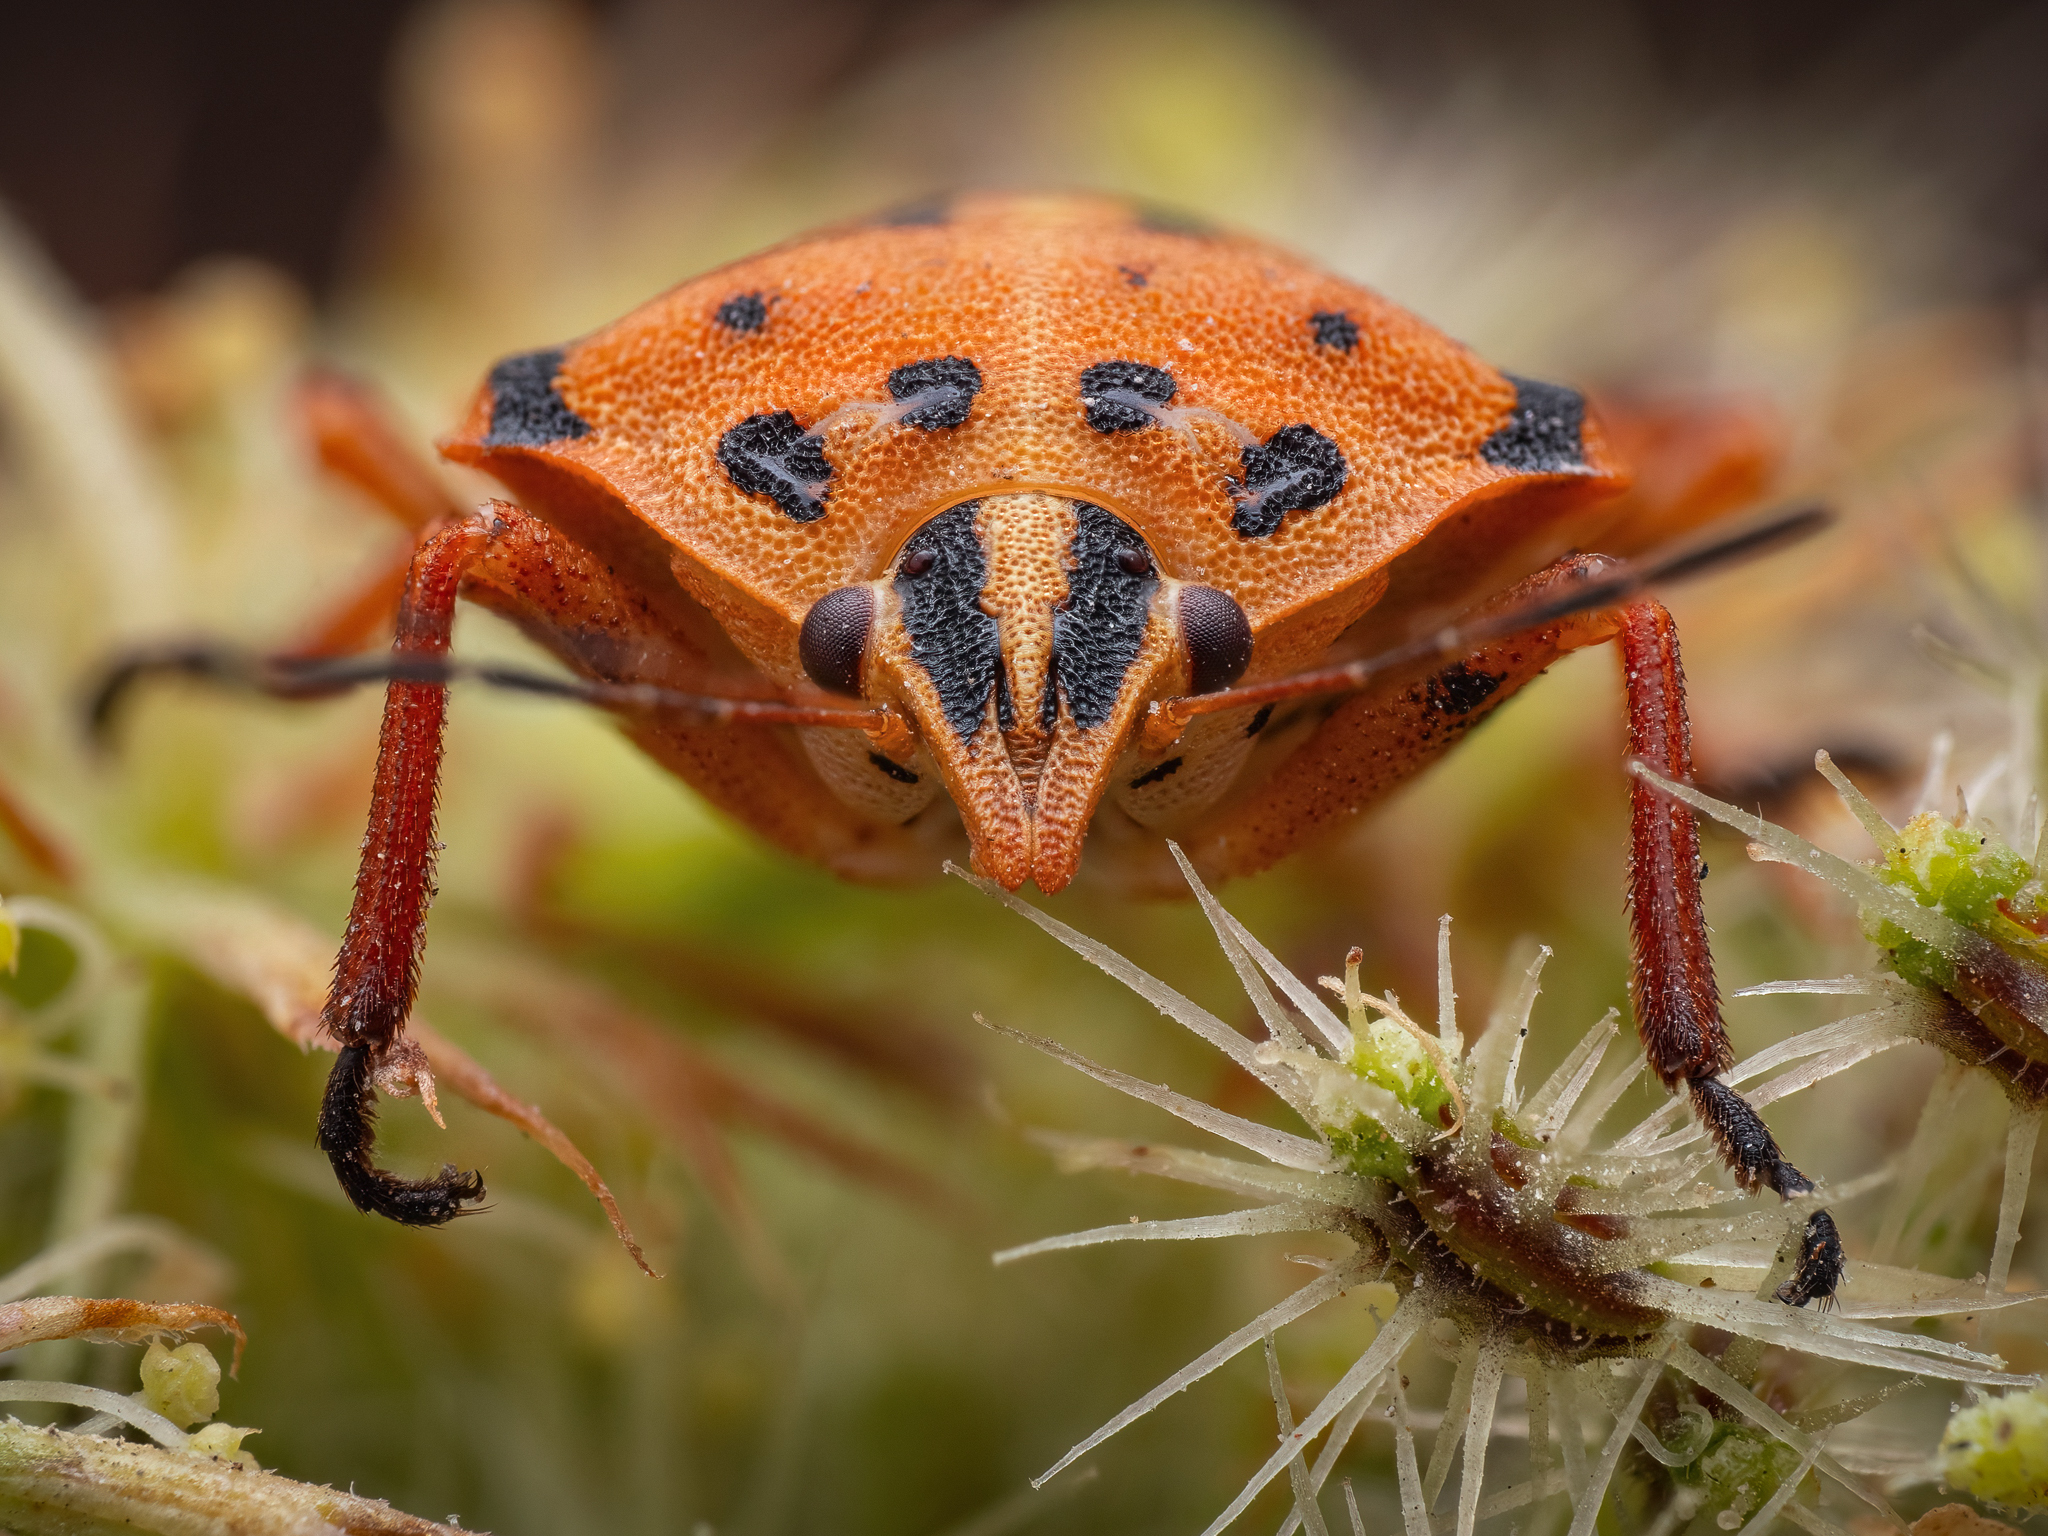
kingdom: Animalia
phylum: Arthropoda
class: Insecta
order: Hemiptera
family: Pentatomidae
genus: Graphosoma
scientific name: Graphosoma semipunctatum
